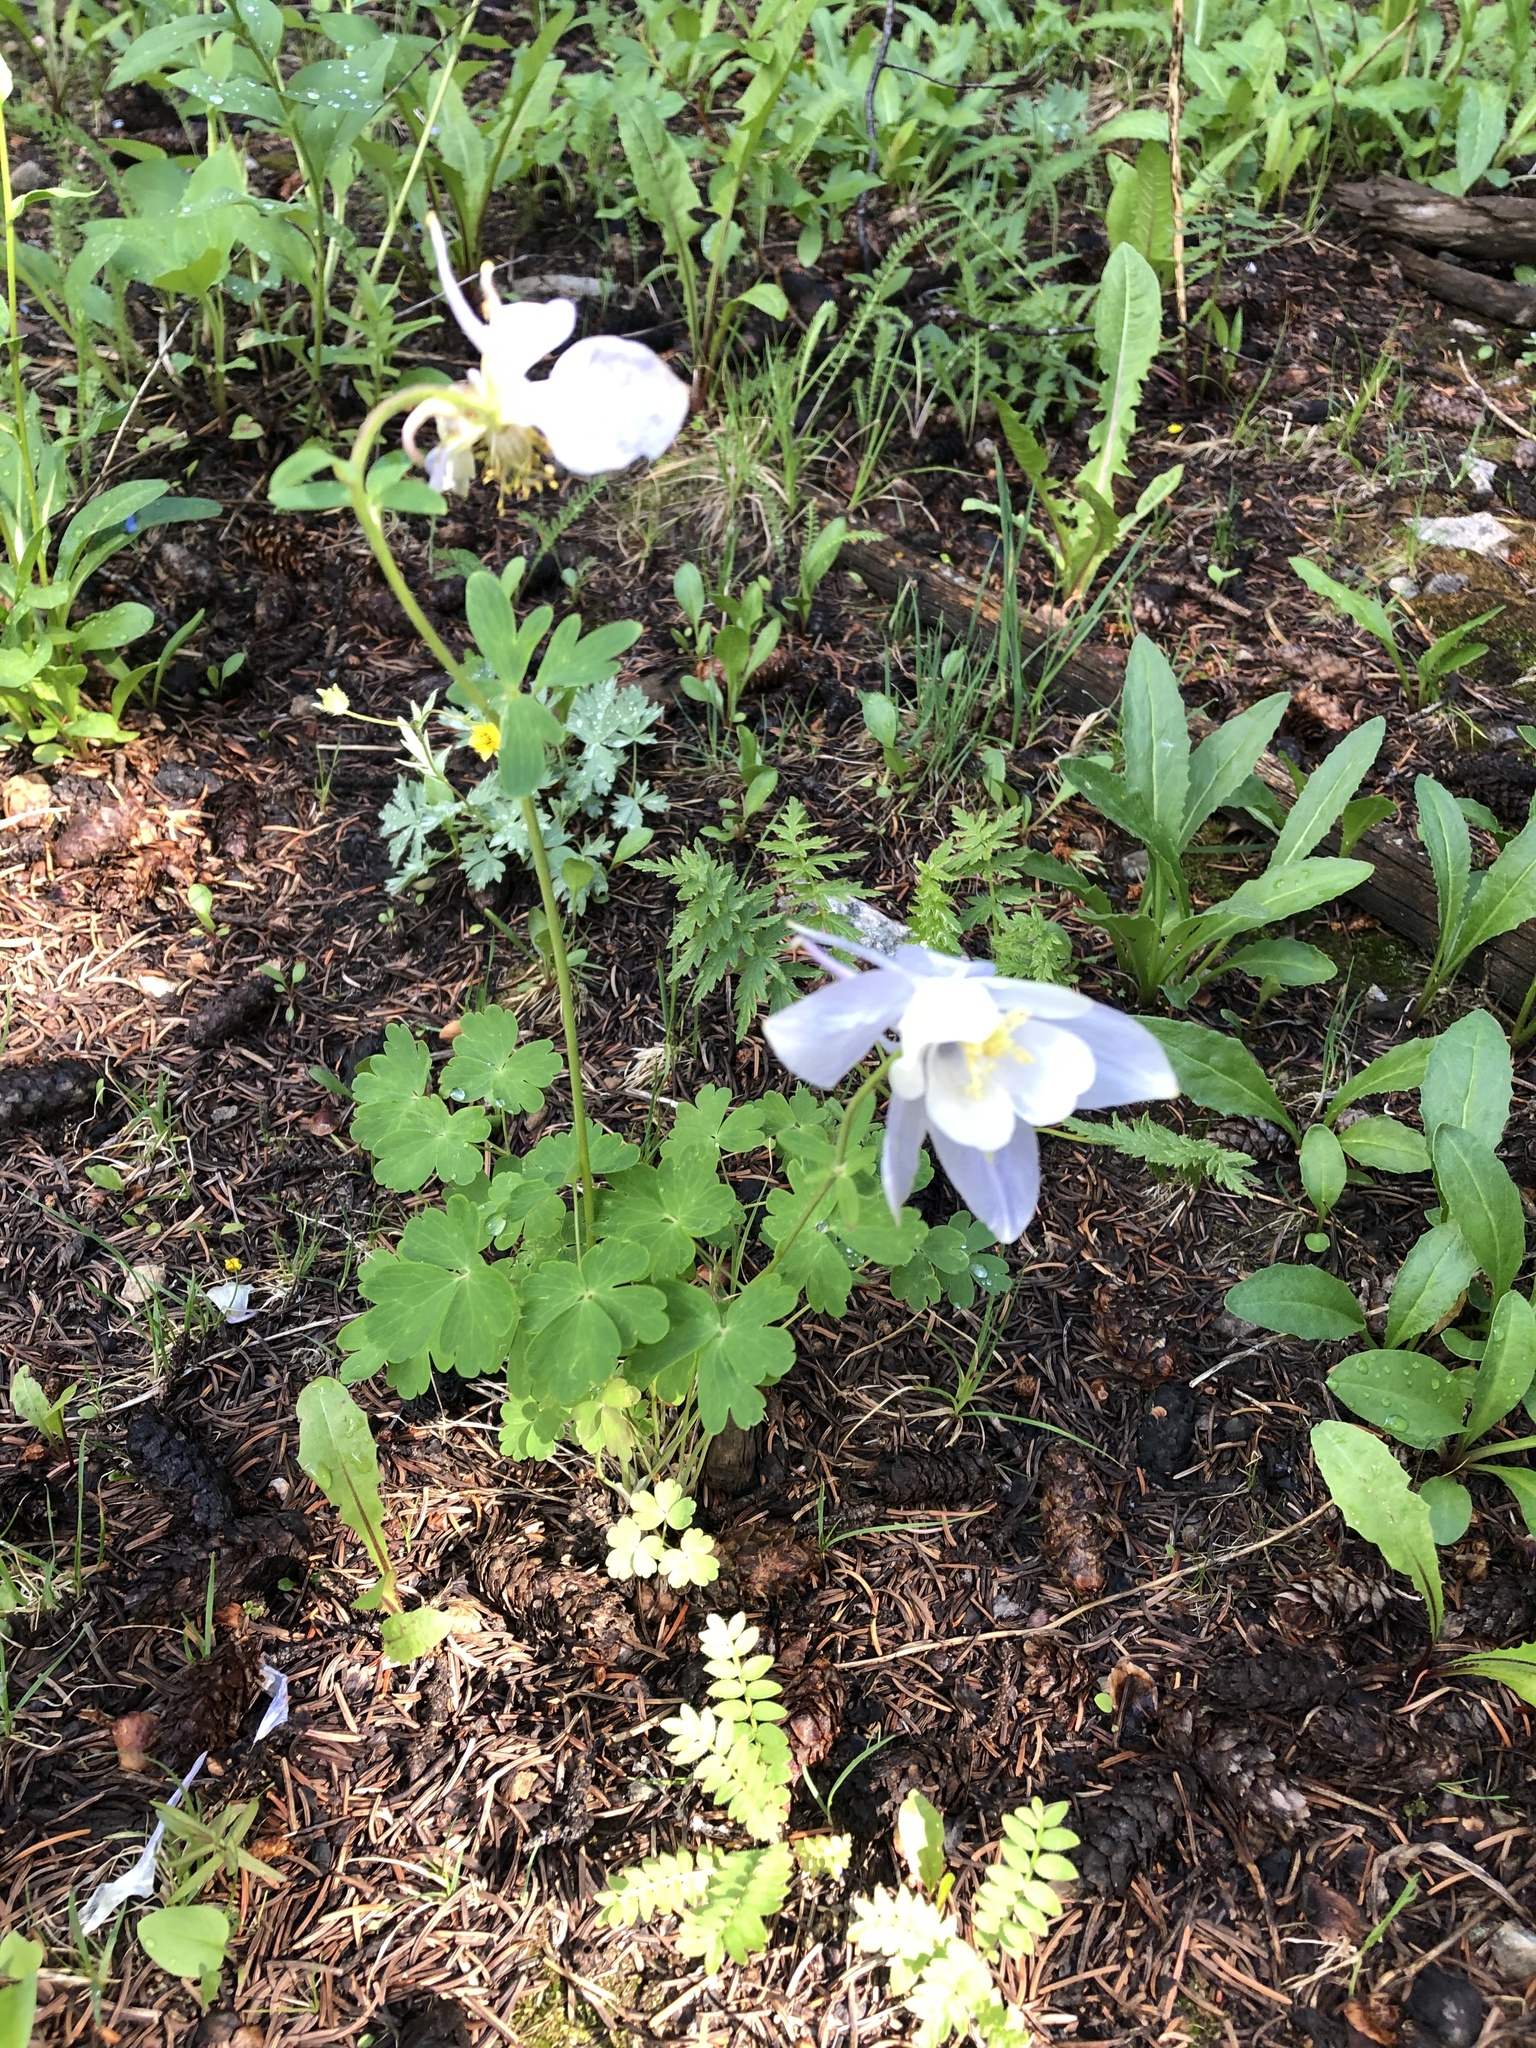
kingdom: Plantae
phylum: Tracheophyta
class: Magnoliopsida
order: Ranunculales
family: Ranunculaceae
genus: Aquilegia
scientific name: Aquilegia coerulea
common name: Rocky mountain columbine
